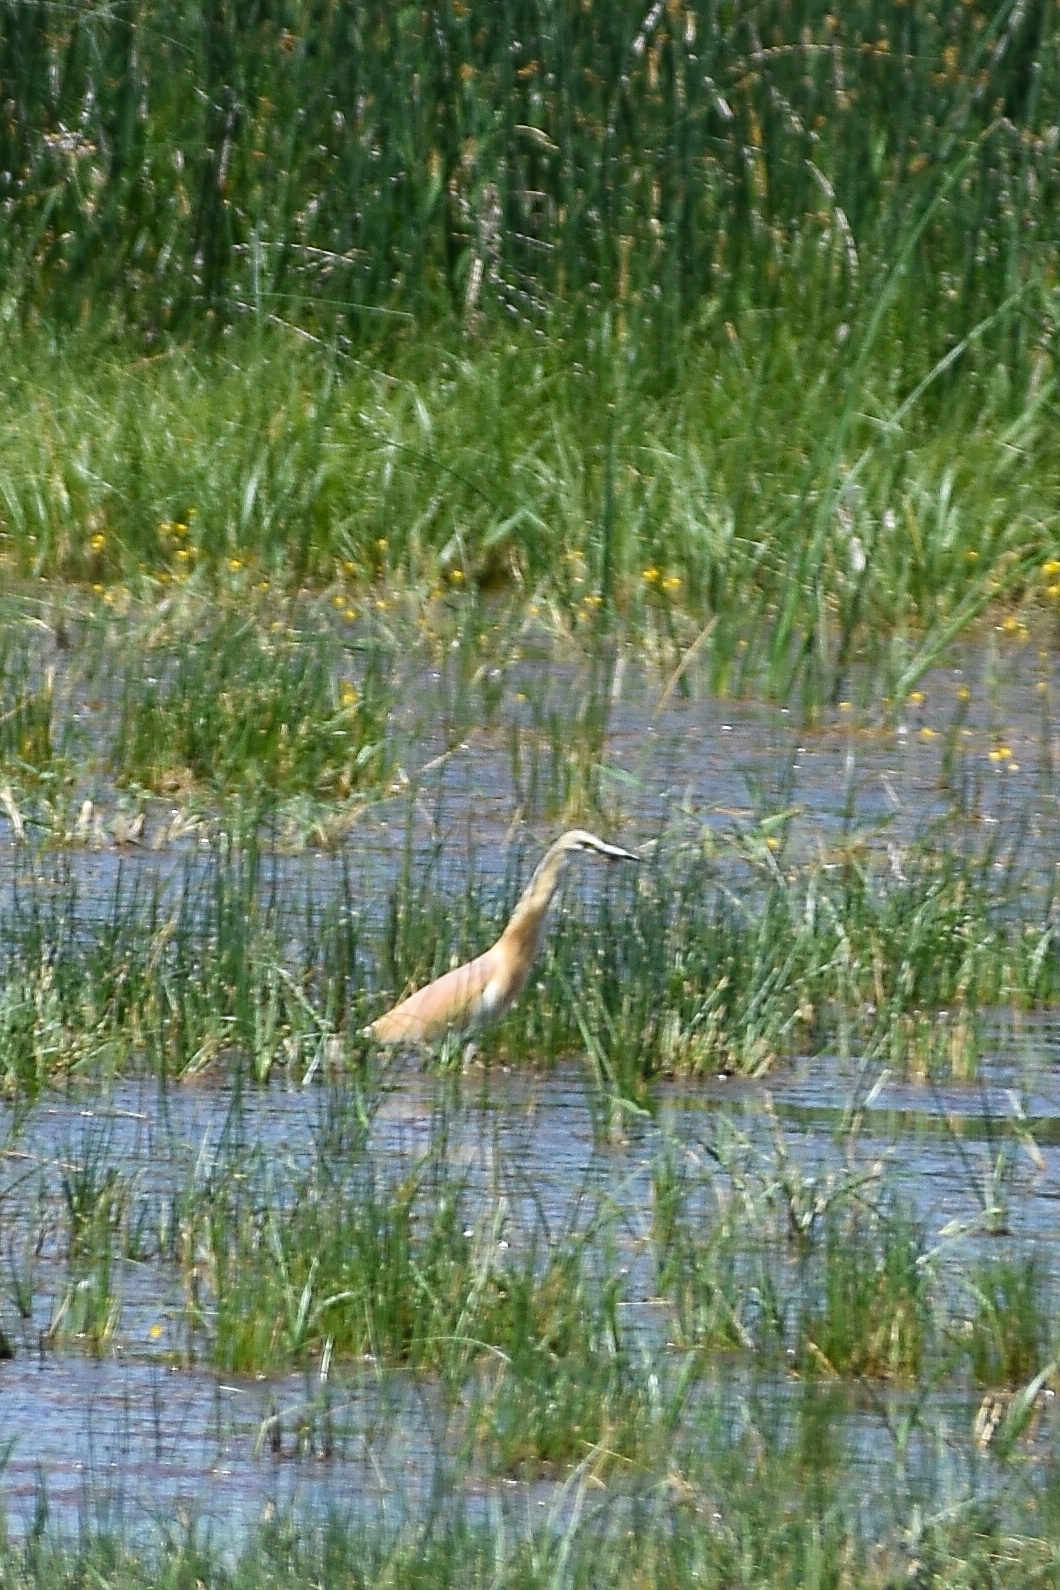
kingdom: Animalia
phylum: Chordata
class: Aves
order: Pelecaniformes
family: Ardeidae
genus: Ardeola
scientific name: Ardeola ralloides
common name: Squacco heron
